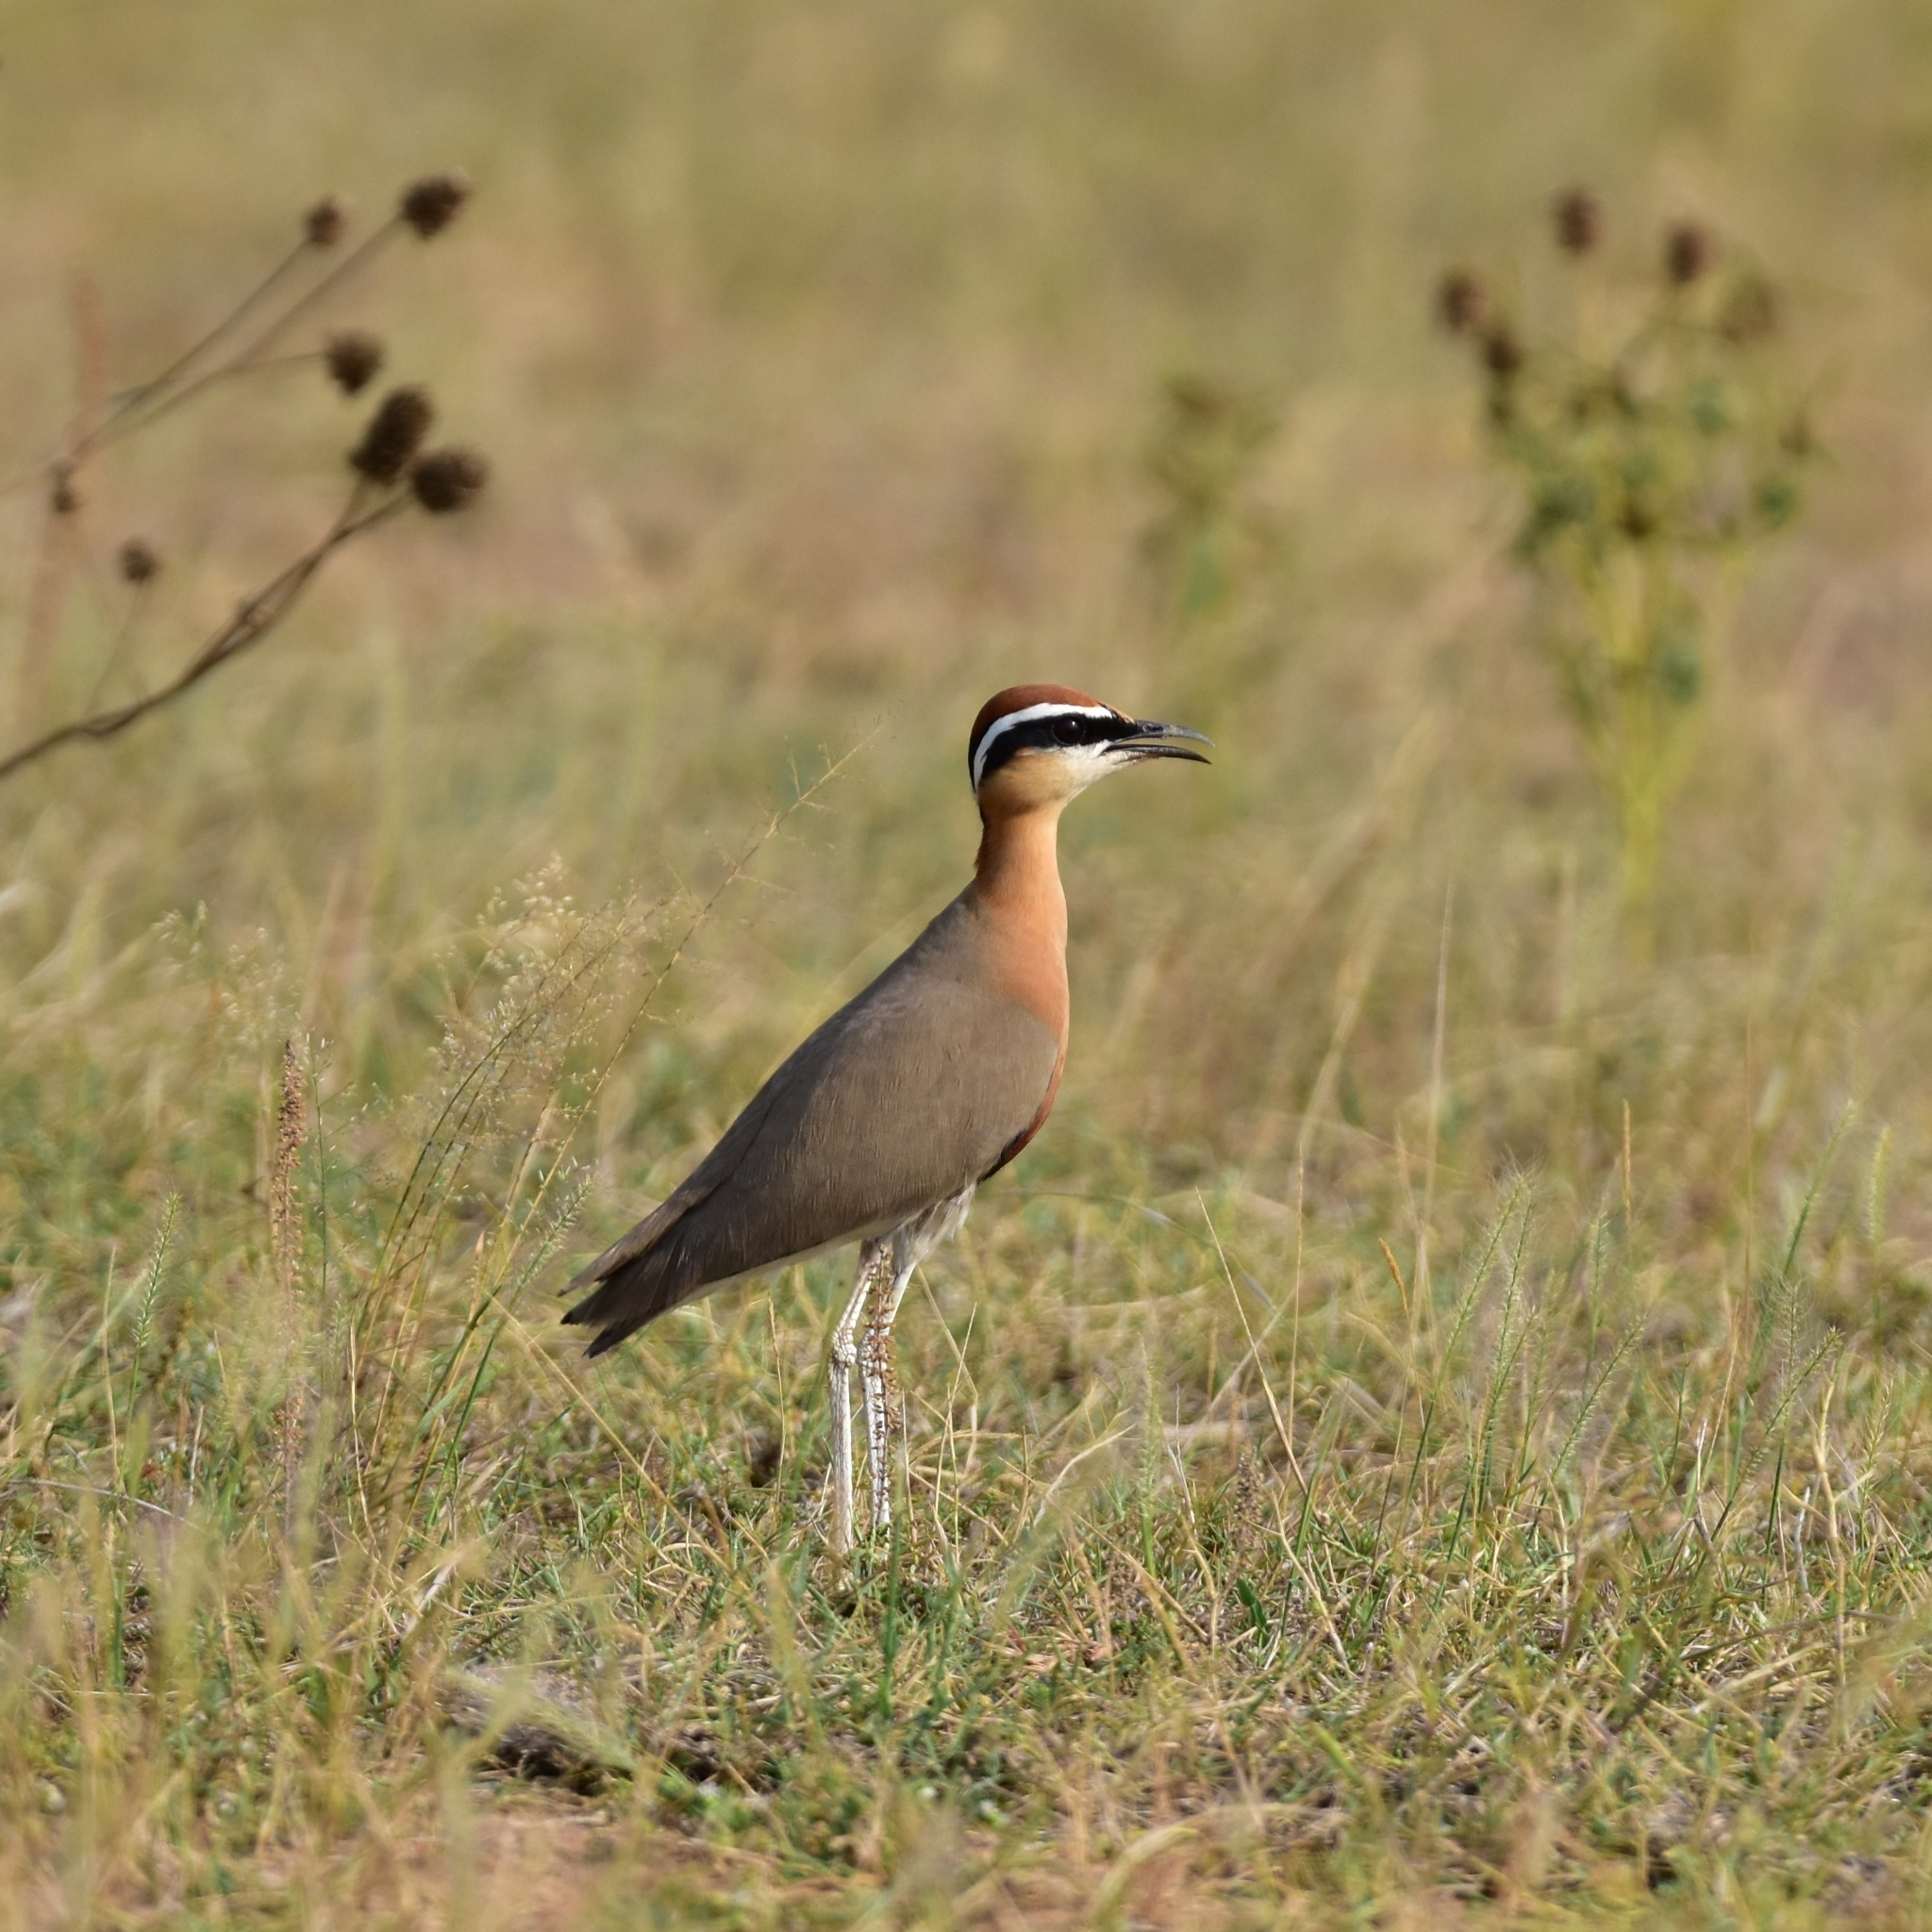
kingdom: Animalia
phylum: Chordata
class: Aves
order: Charadriiformes
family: Glareolidae
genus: Cursorius
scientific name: Cursorius coromandelicus
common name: Indian courser
